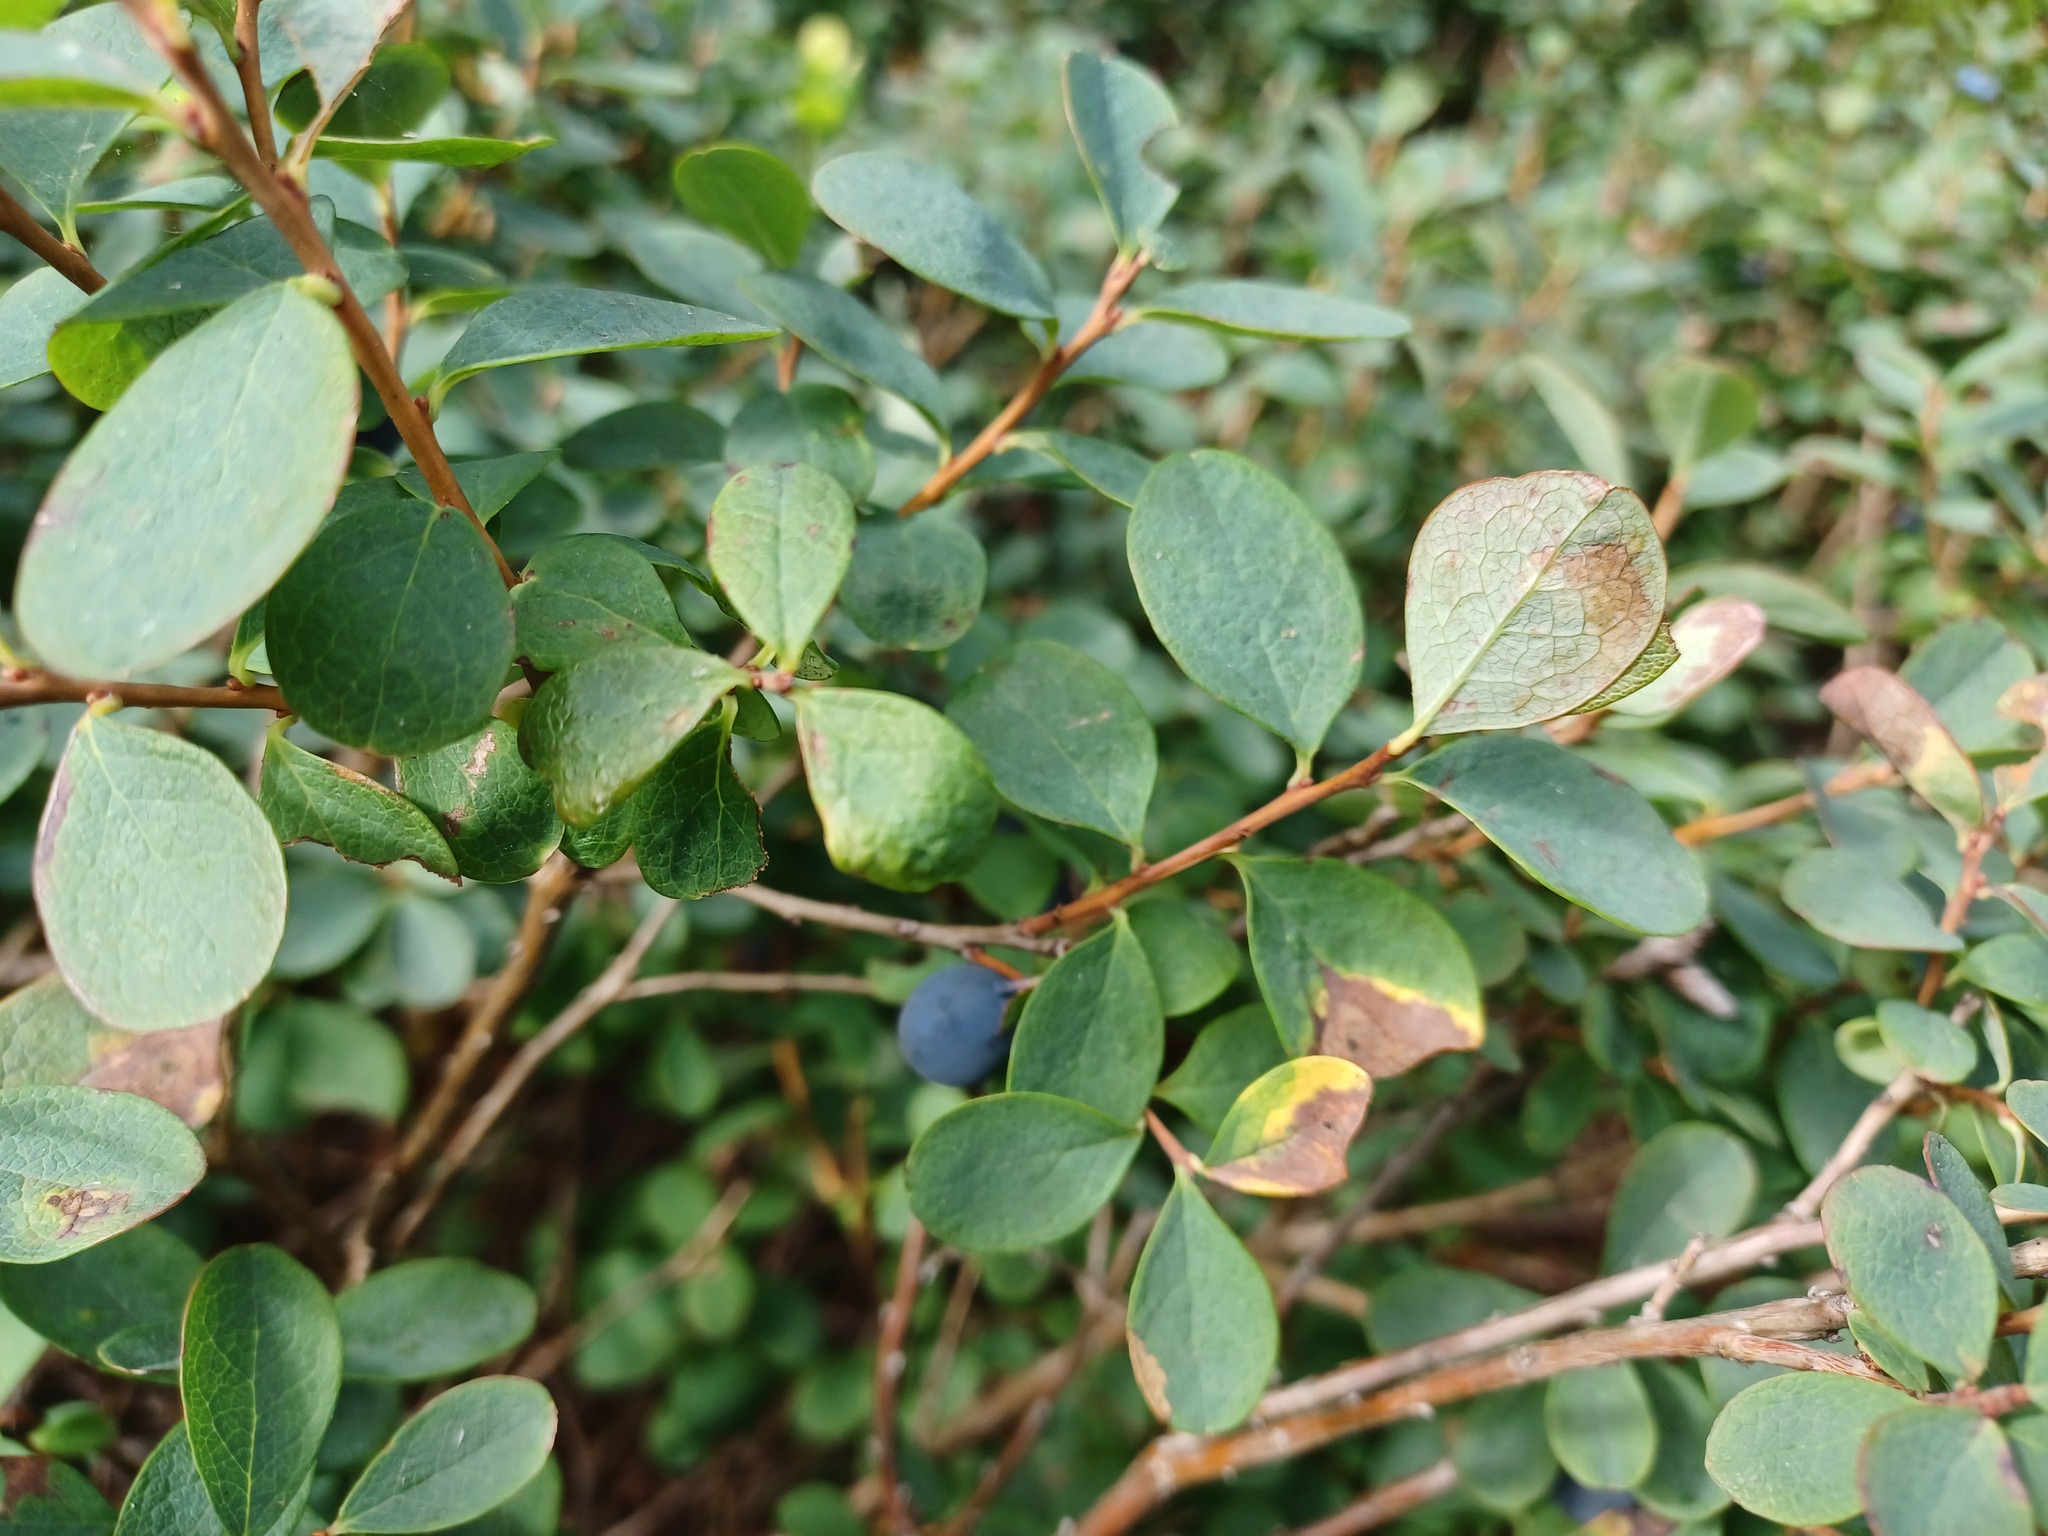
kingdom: Plantae
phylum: Tracheophyta
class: Magnoliopsida
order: Ericales
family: Ericaceae
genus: Vaccinium
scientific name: Vaccinium uliginosum
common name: Bog bilberry
